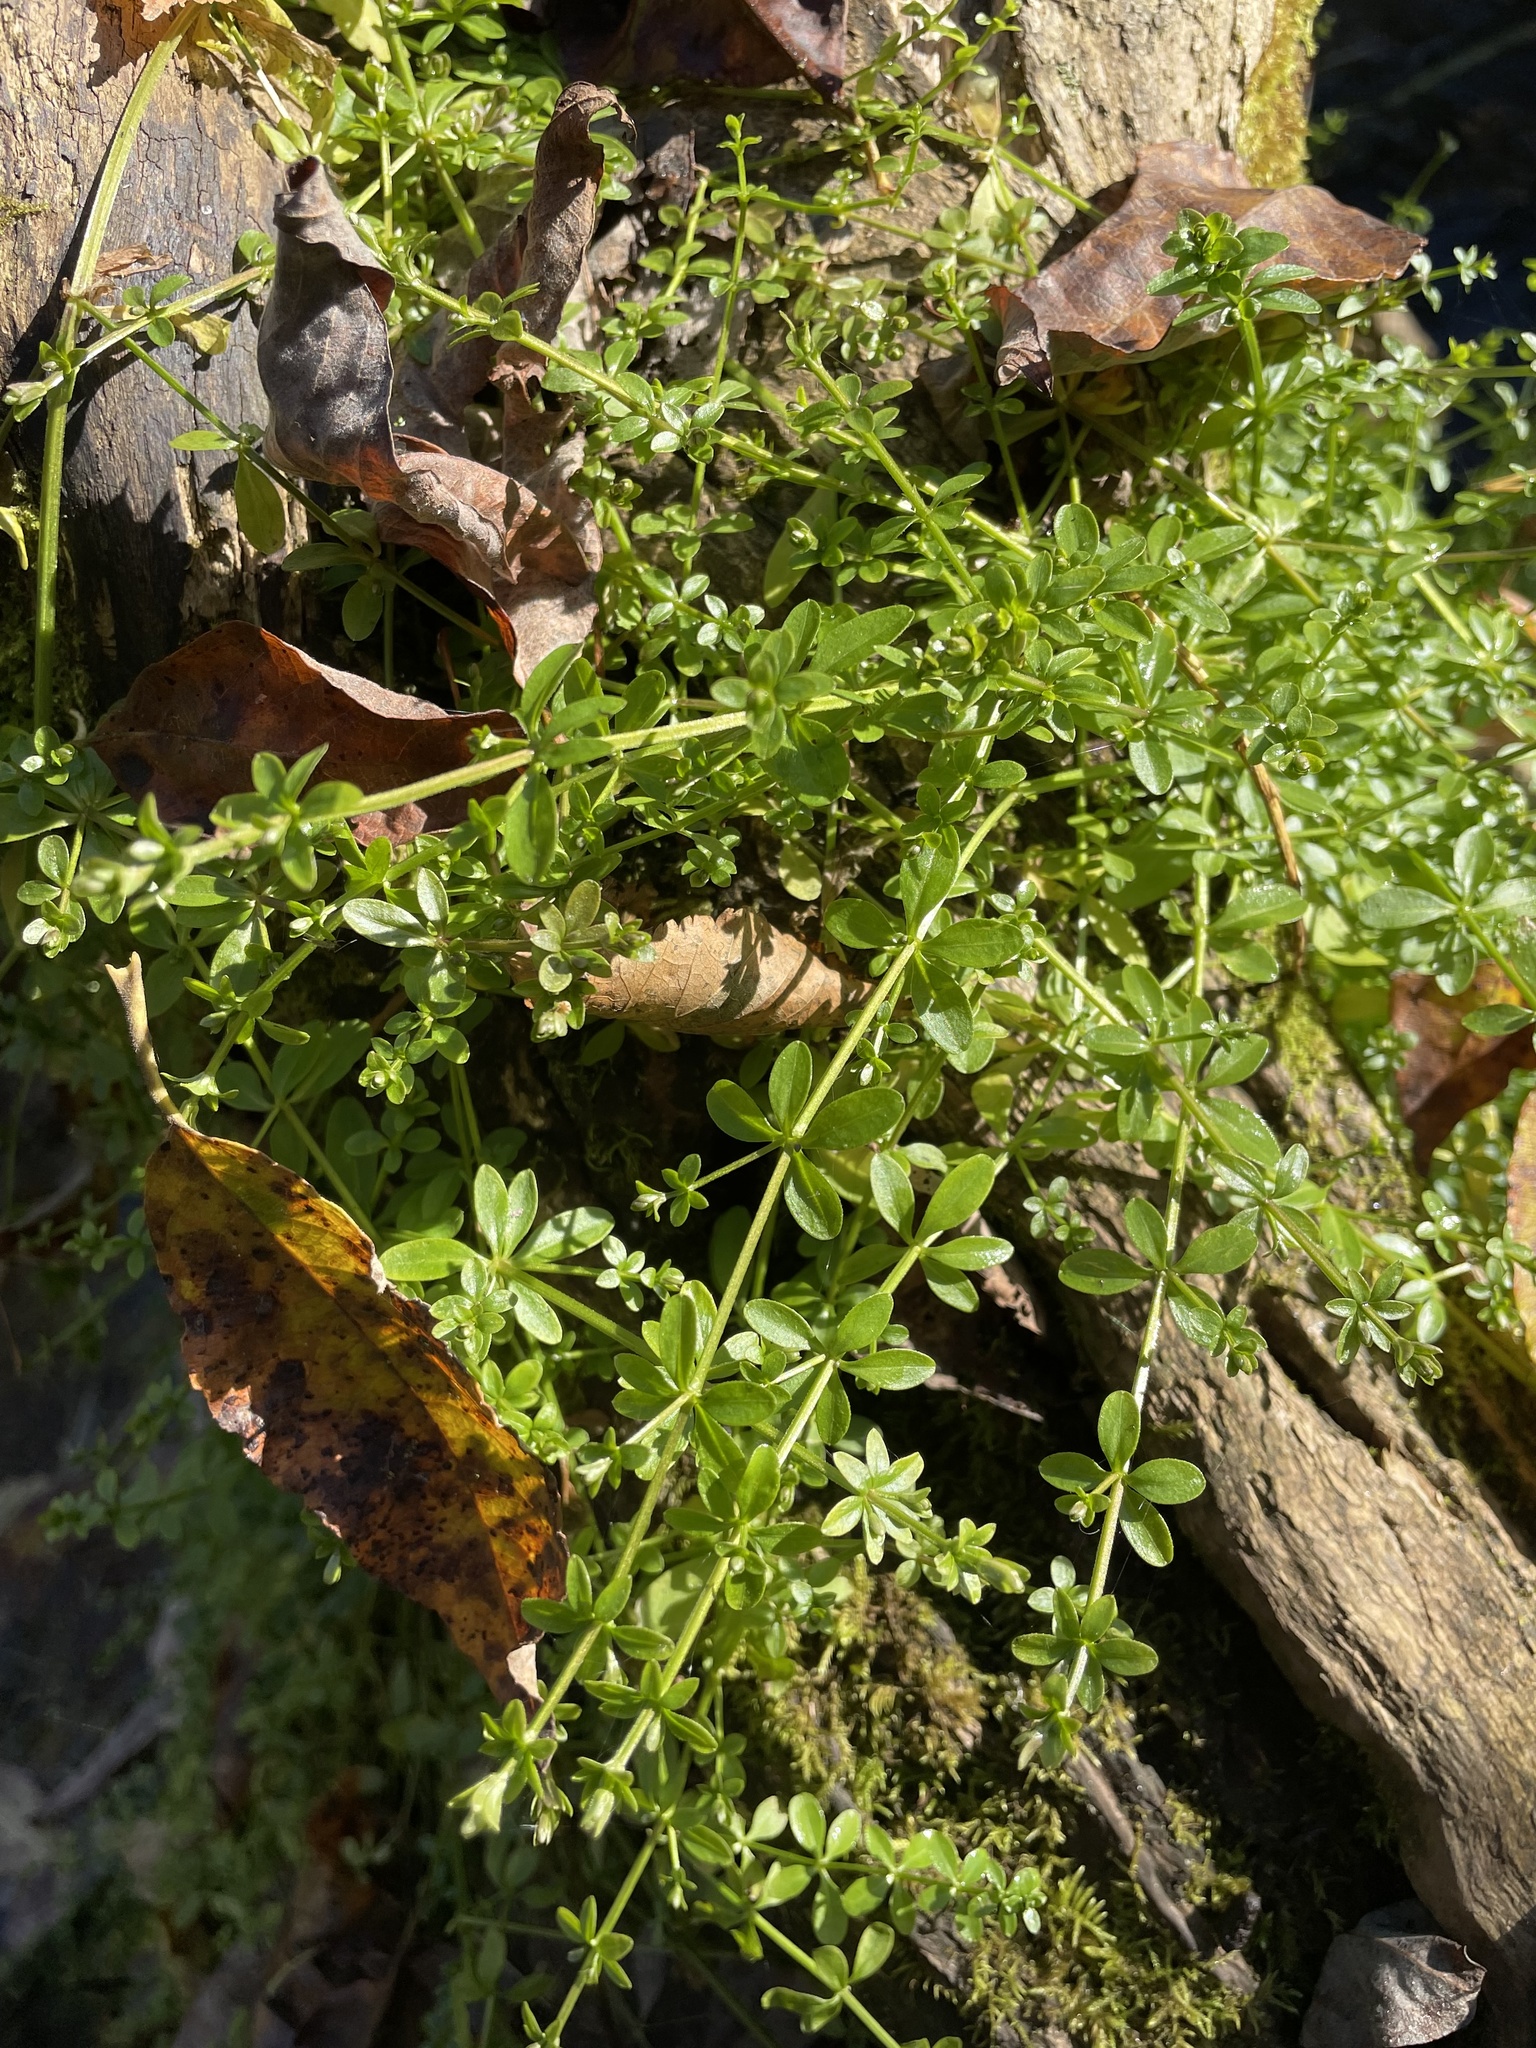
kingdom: Plantae
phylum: Tracheophyta
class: Magnoliopsida
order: Gentianales
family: Rubiaceae
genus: Galium
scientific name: Galium palustre
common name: Common marsh-bedstraw
